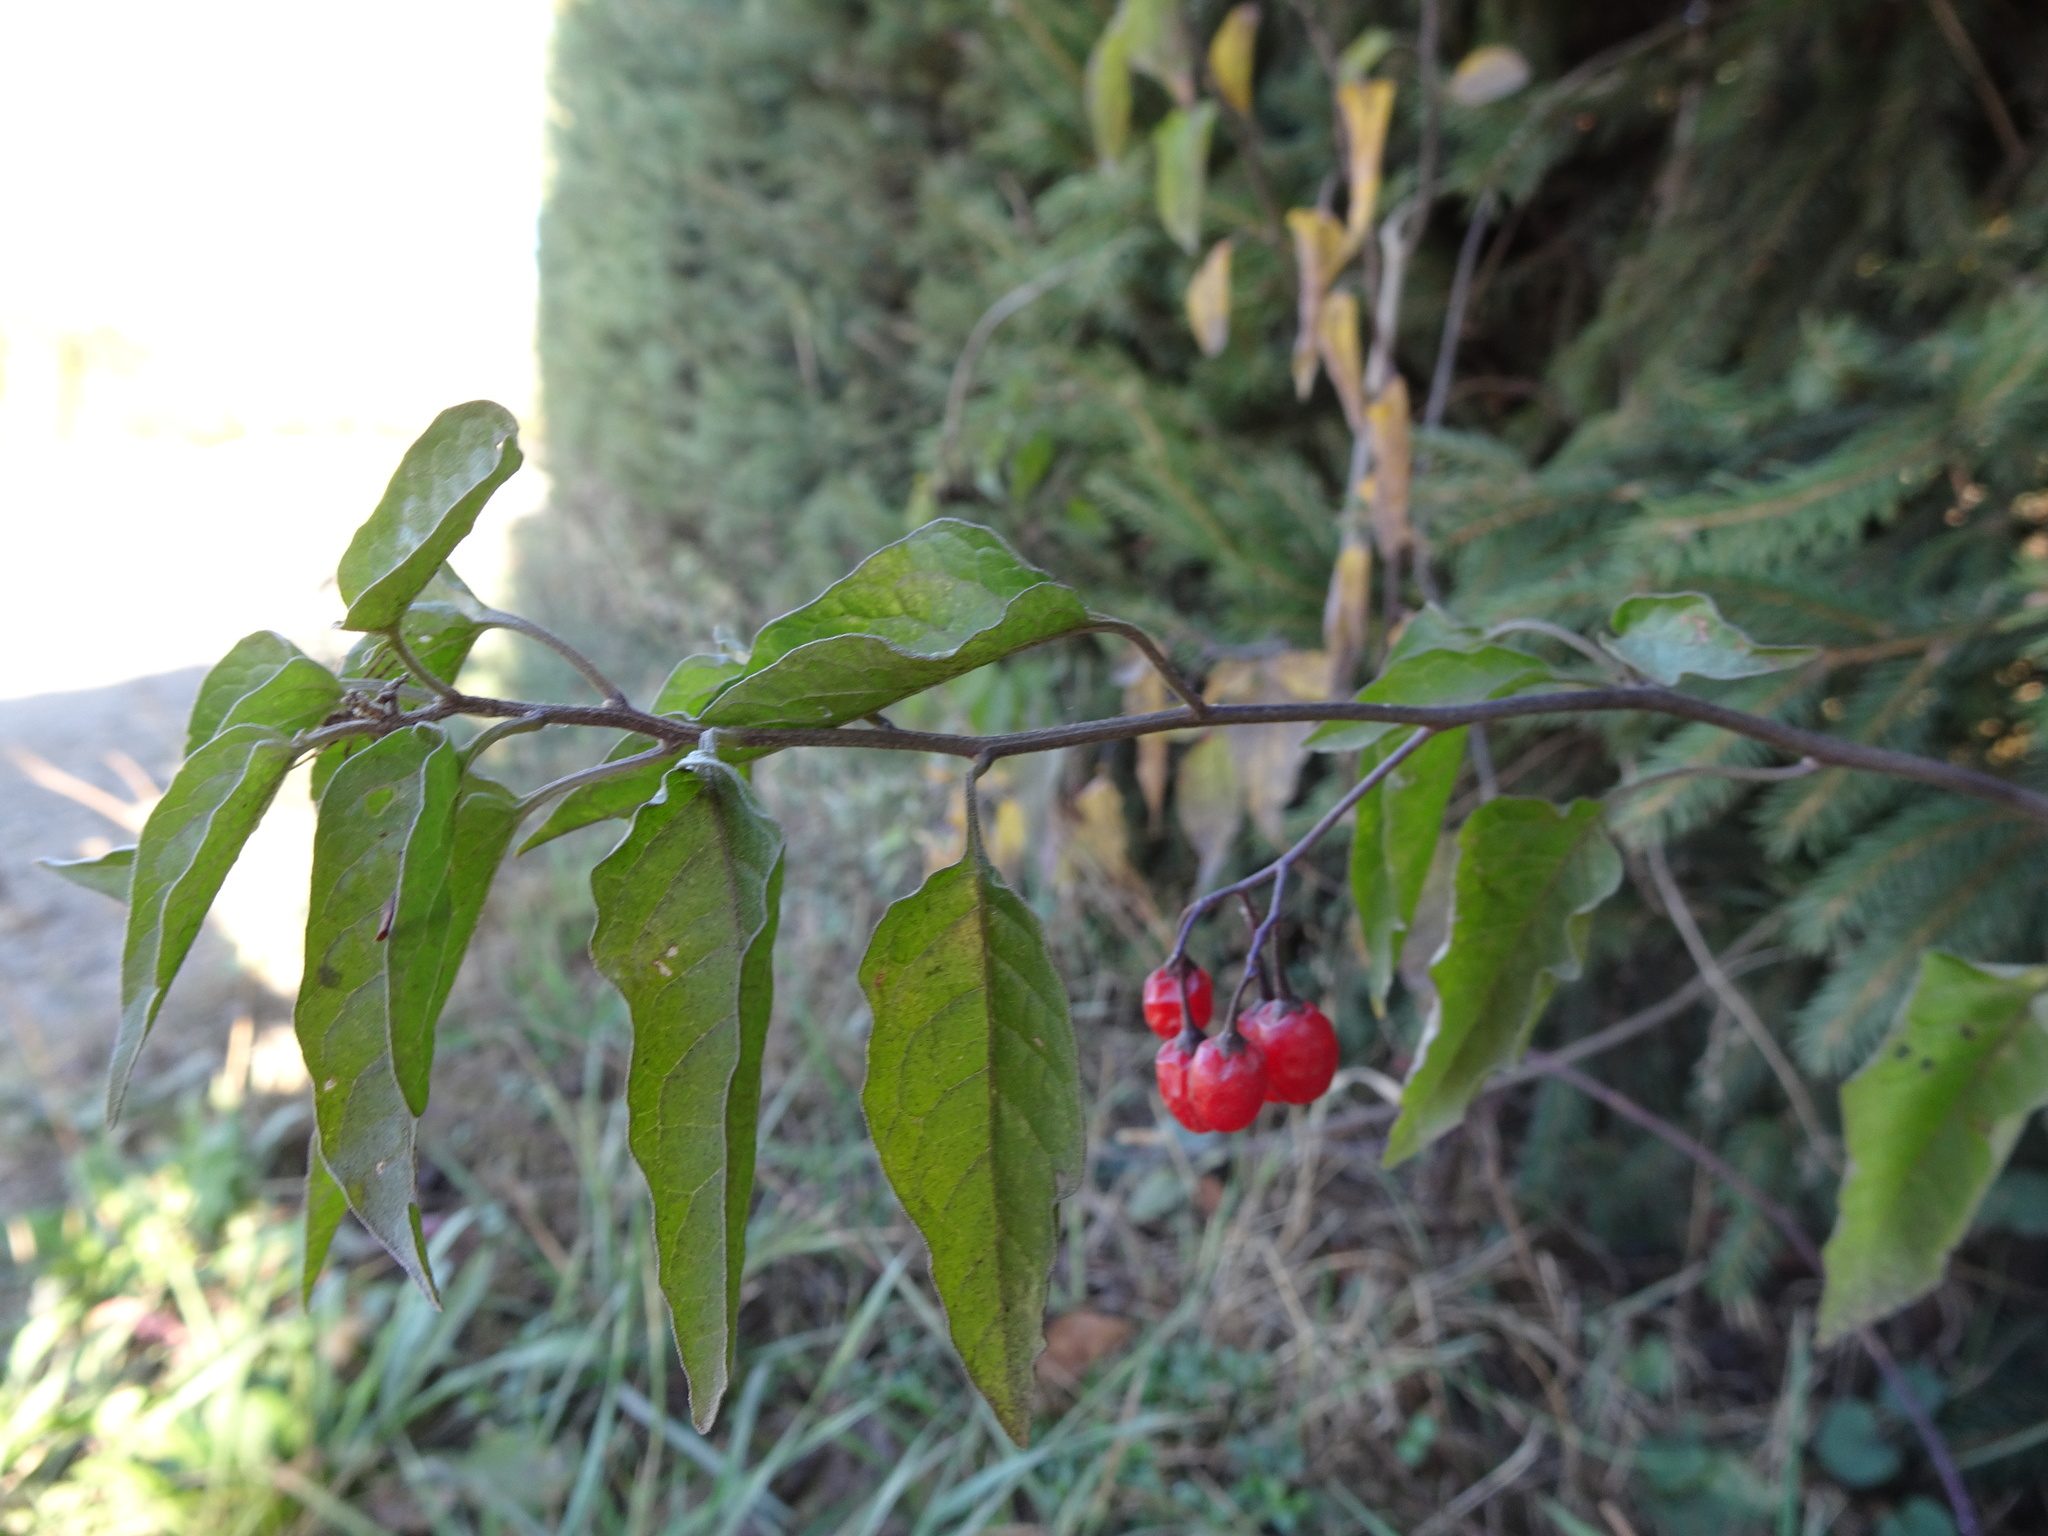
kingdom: Plantae
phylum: Tracheophyta
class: Magnoliopsida
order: Solanales
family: Solanaceae
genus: Solanum
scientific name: Solanum dulcamara
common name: Climbing nightshade
